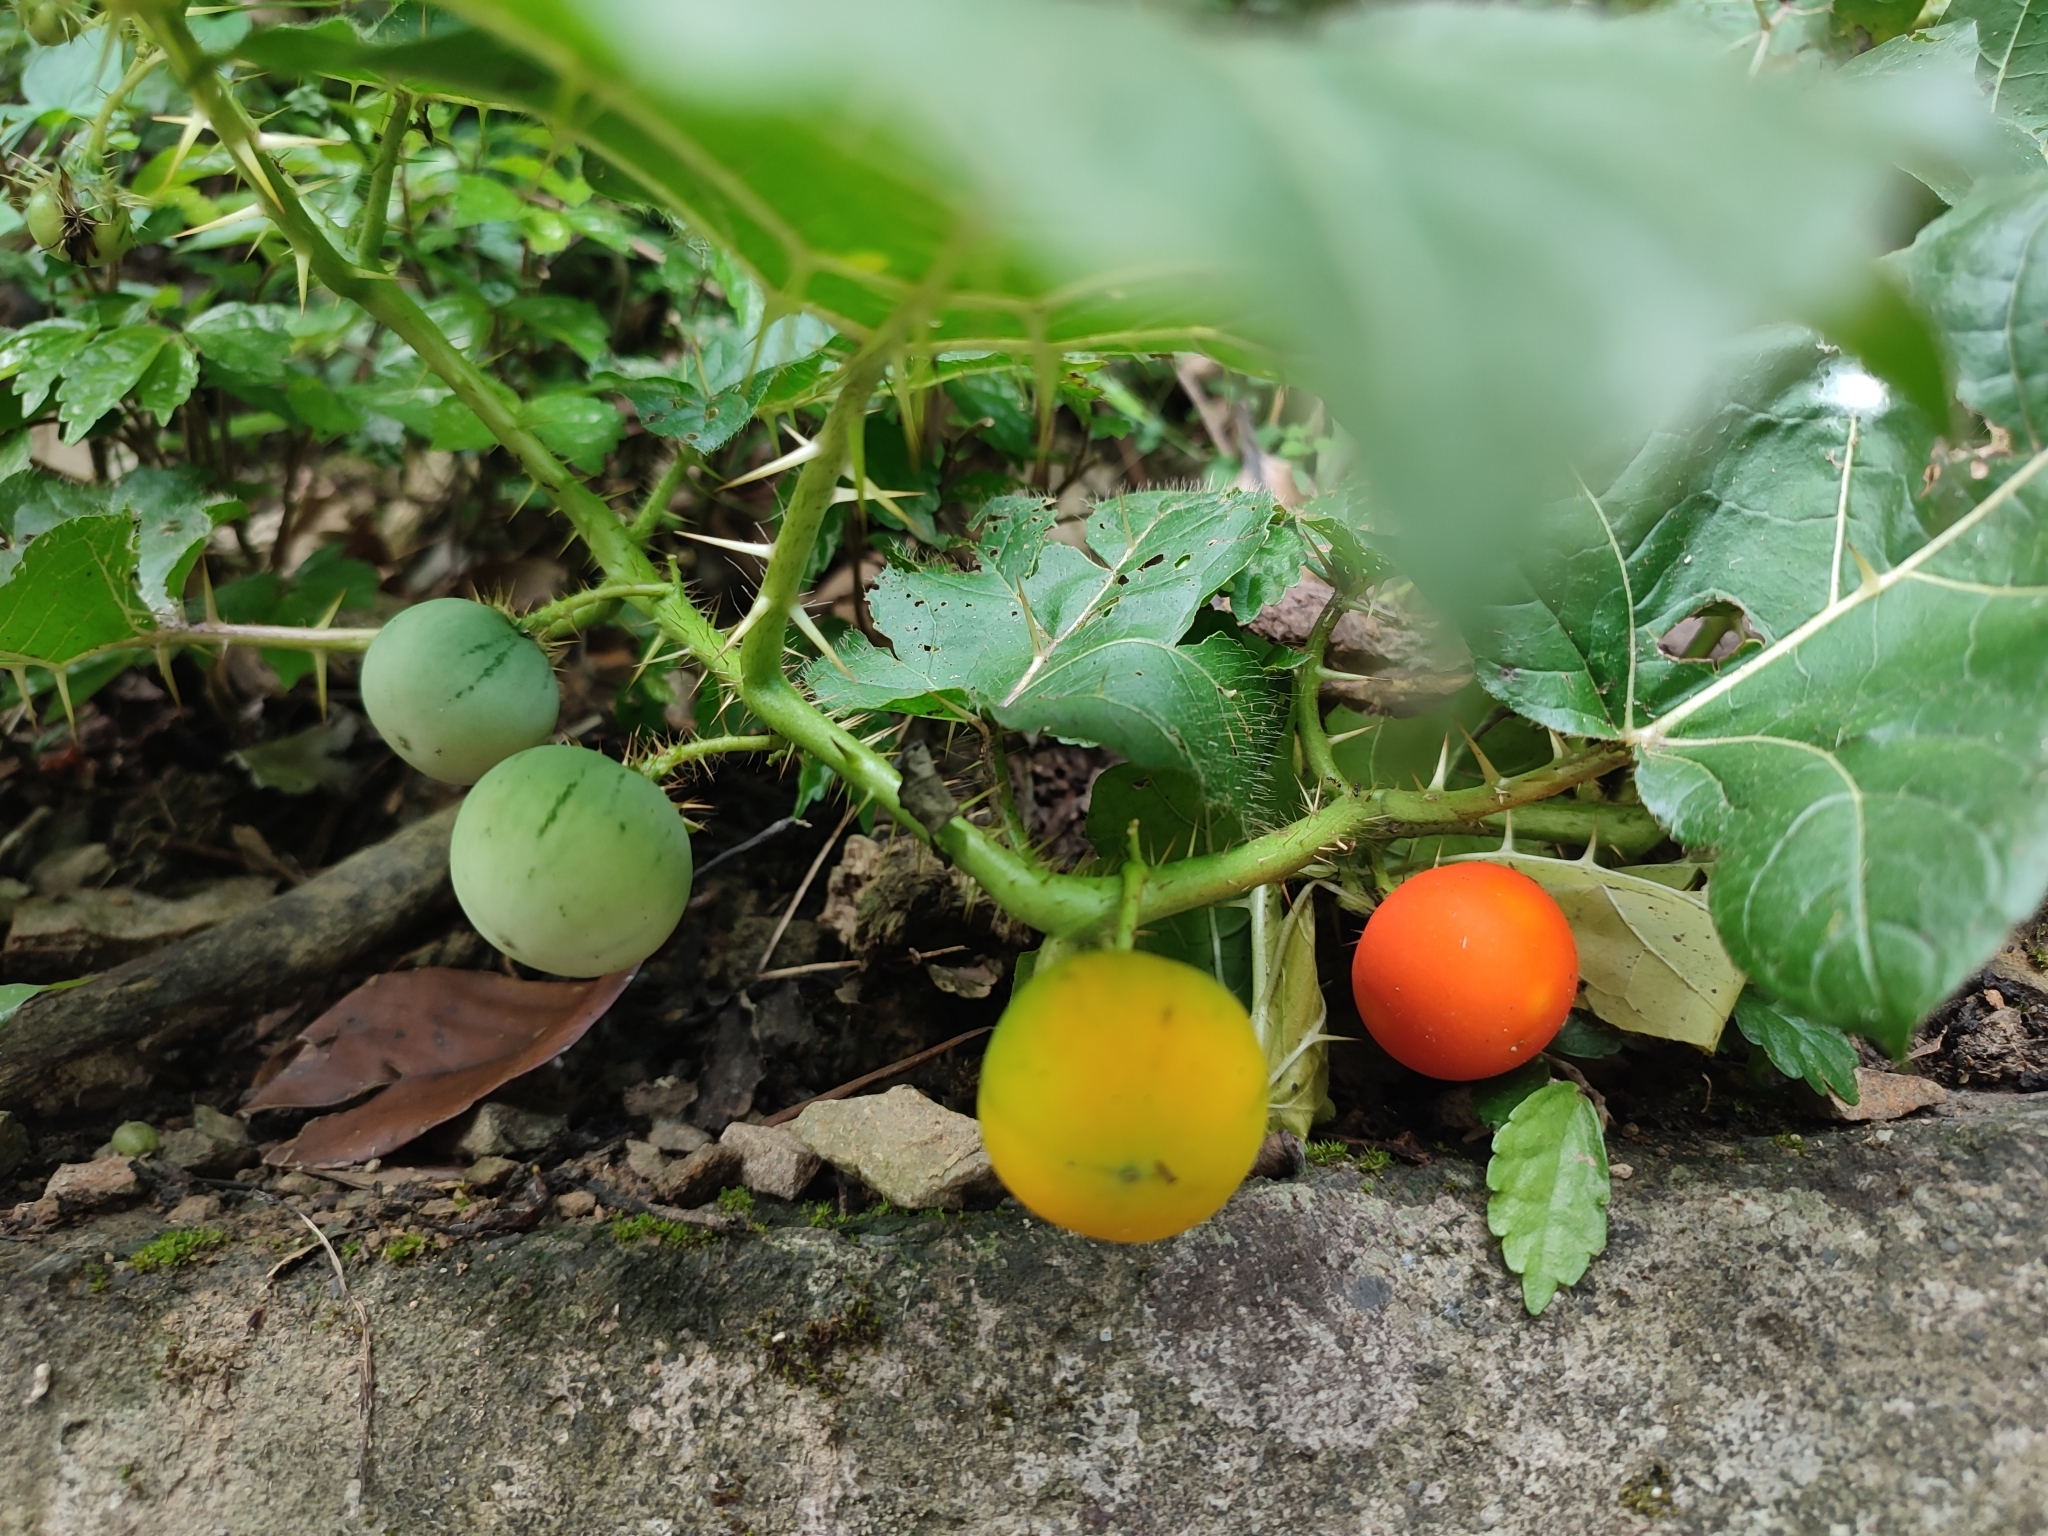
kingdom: Plantae
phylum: Tracheophyta
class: Magnoliopsida
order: Solanales
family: Solanaceae
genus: Solanum
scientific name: Solanum capsicoides
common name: Cockroach berry
